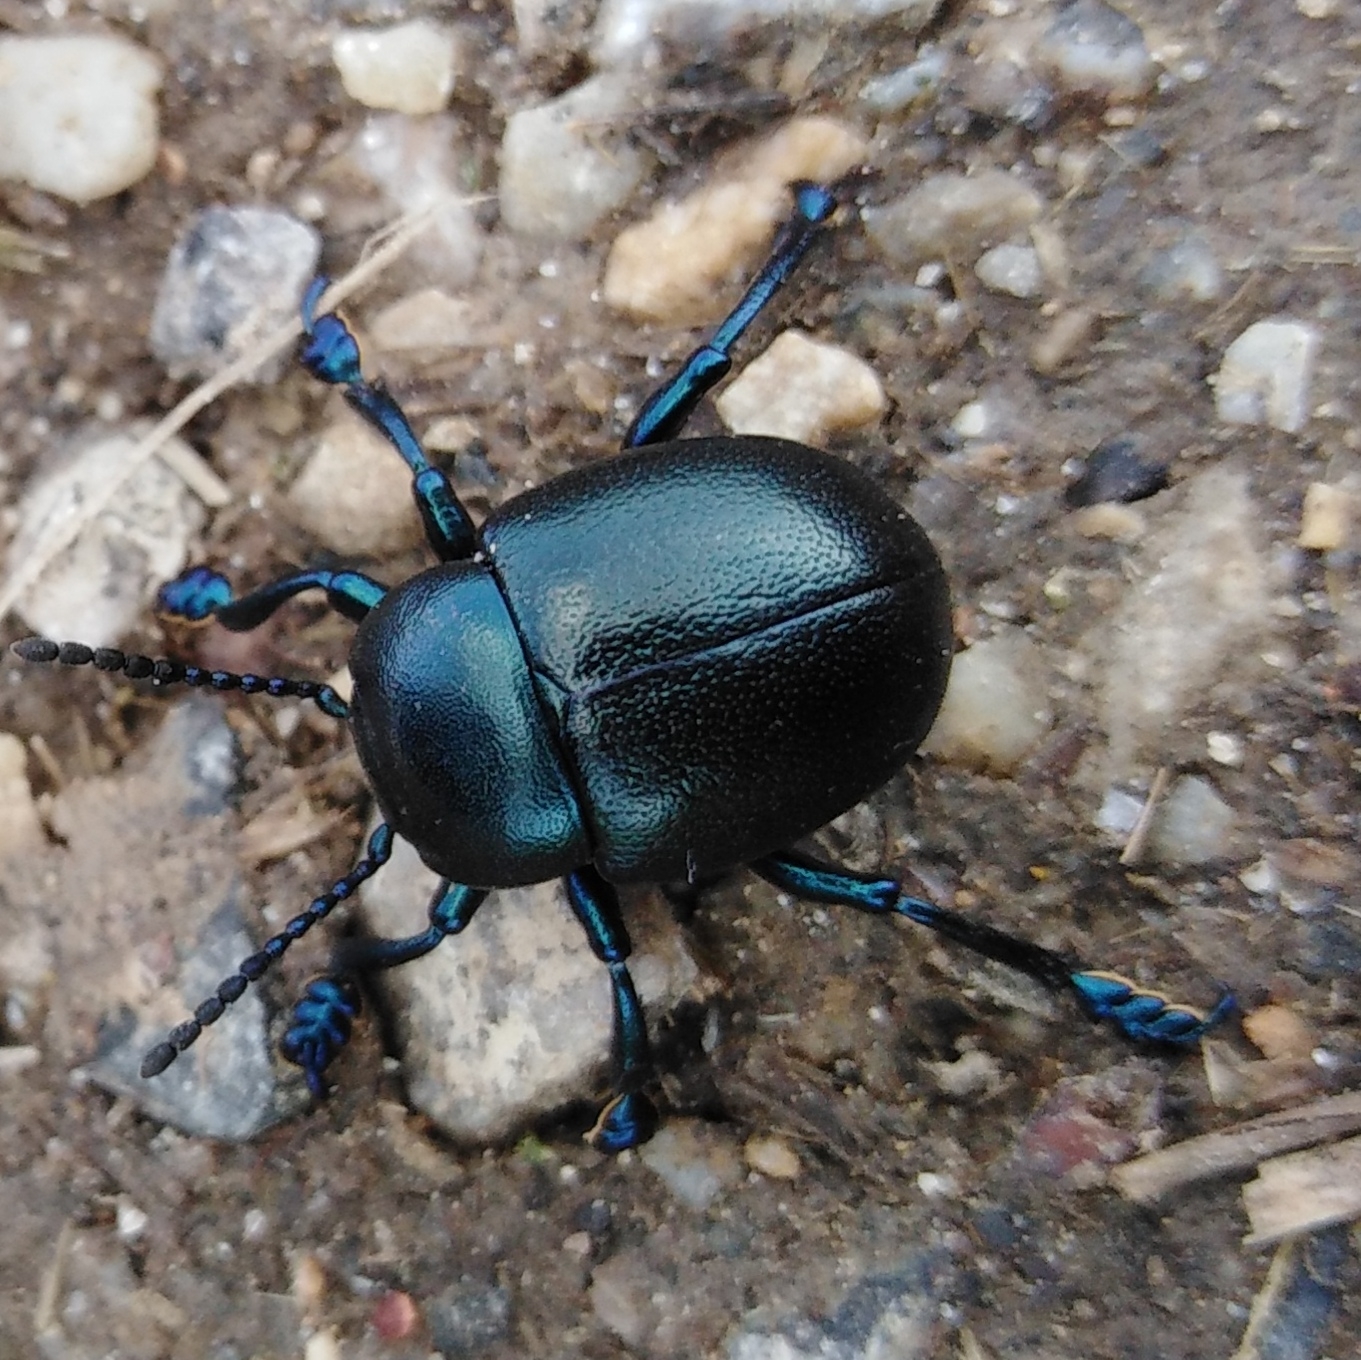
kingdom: Animalia
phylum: Arthropoda
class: Insecta
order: Coleoptera
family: Chrysomelidae
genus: Timarcha
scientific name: Timarcha tenebricosa
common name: Bloody-nosed beetle
